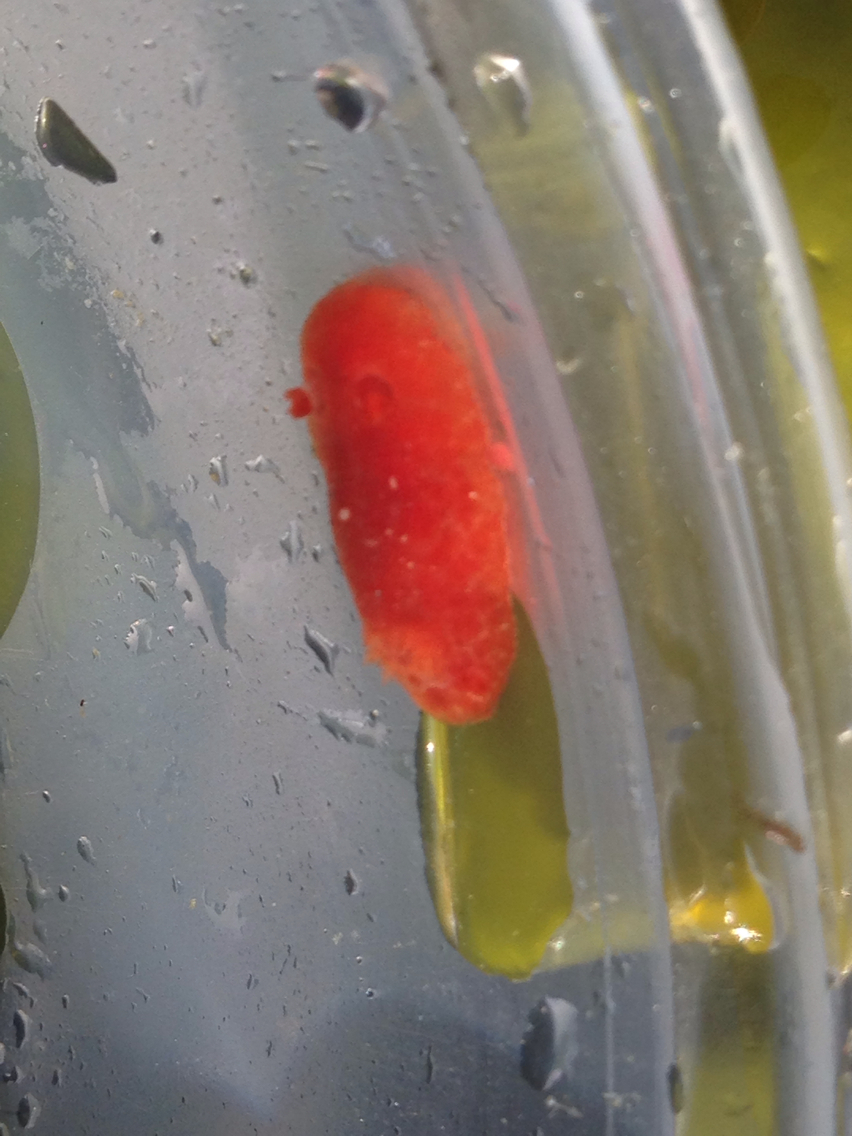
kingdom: Animalia
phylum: Mollusca
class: Gastropoda
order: Nudibranchia
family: Discodorididae
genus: Rostanga
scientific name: Rostanga pulchra
